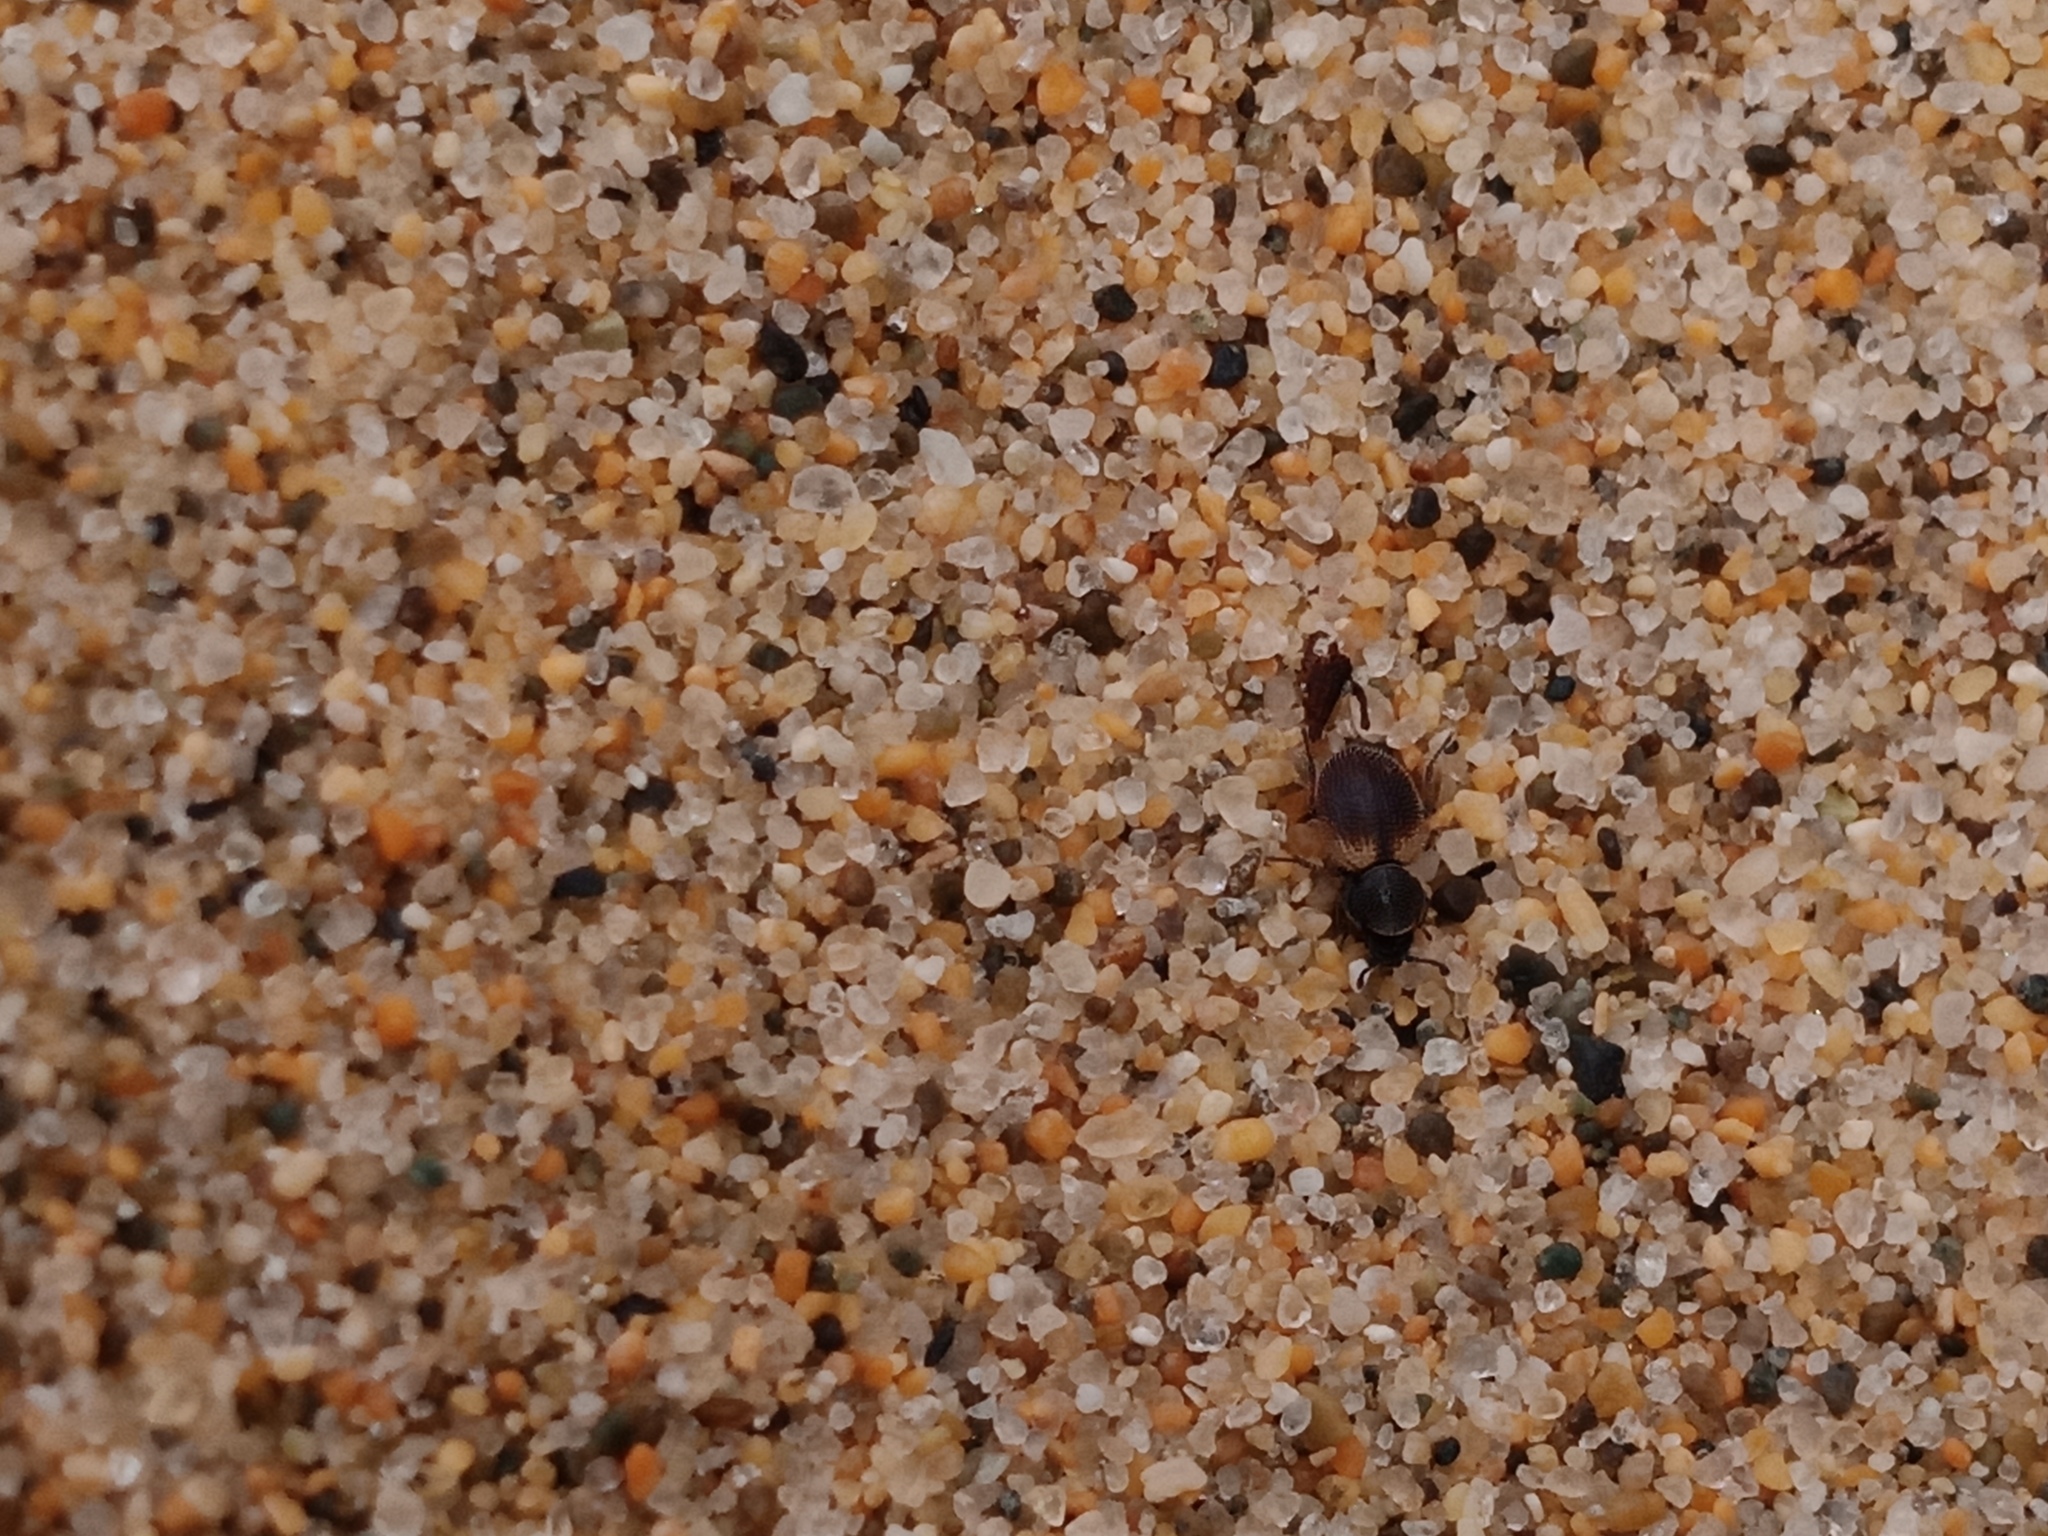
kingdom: Animalia
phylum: Arthropoda
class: Insecta
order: Coleoptera
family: Phycosecidae
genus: Phycosecis
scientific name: Phycosecis
